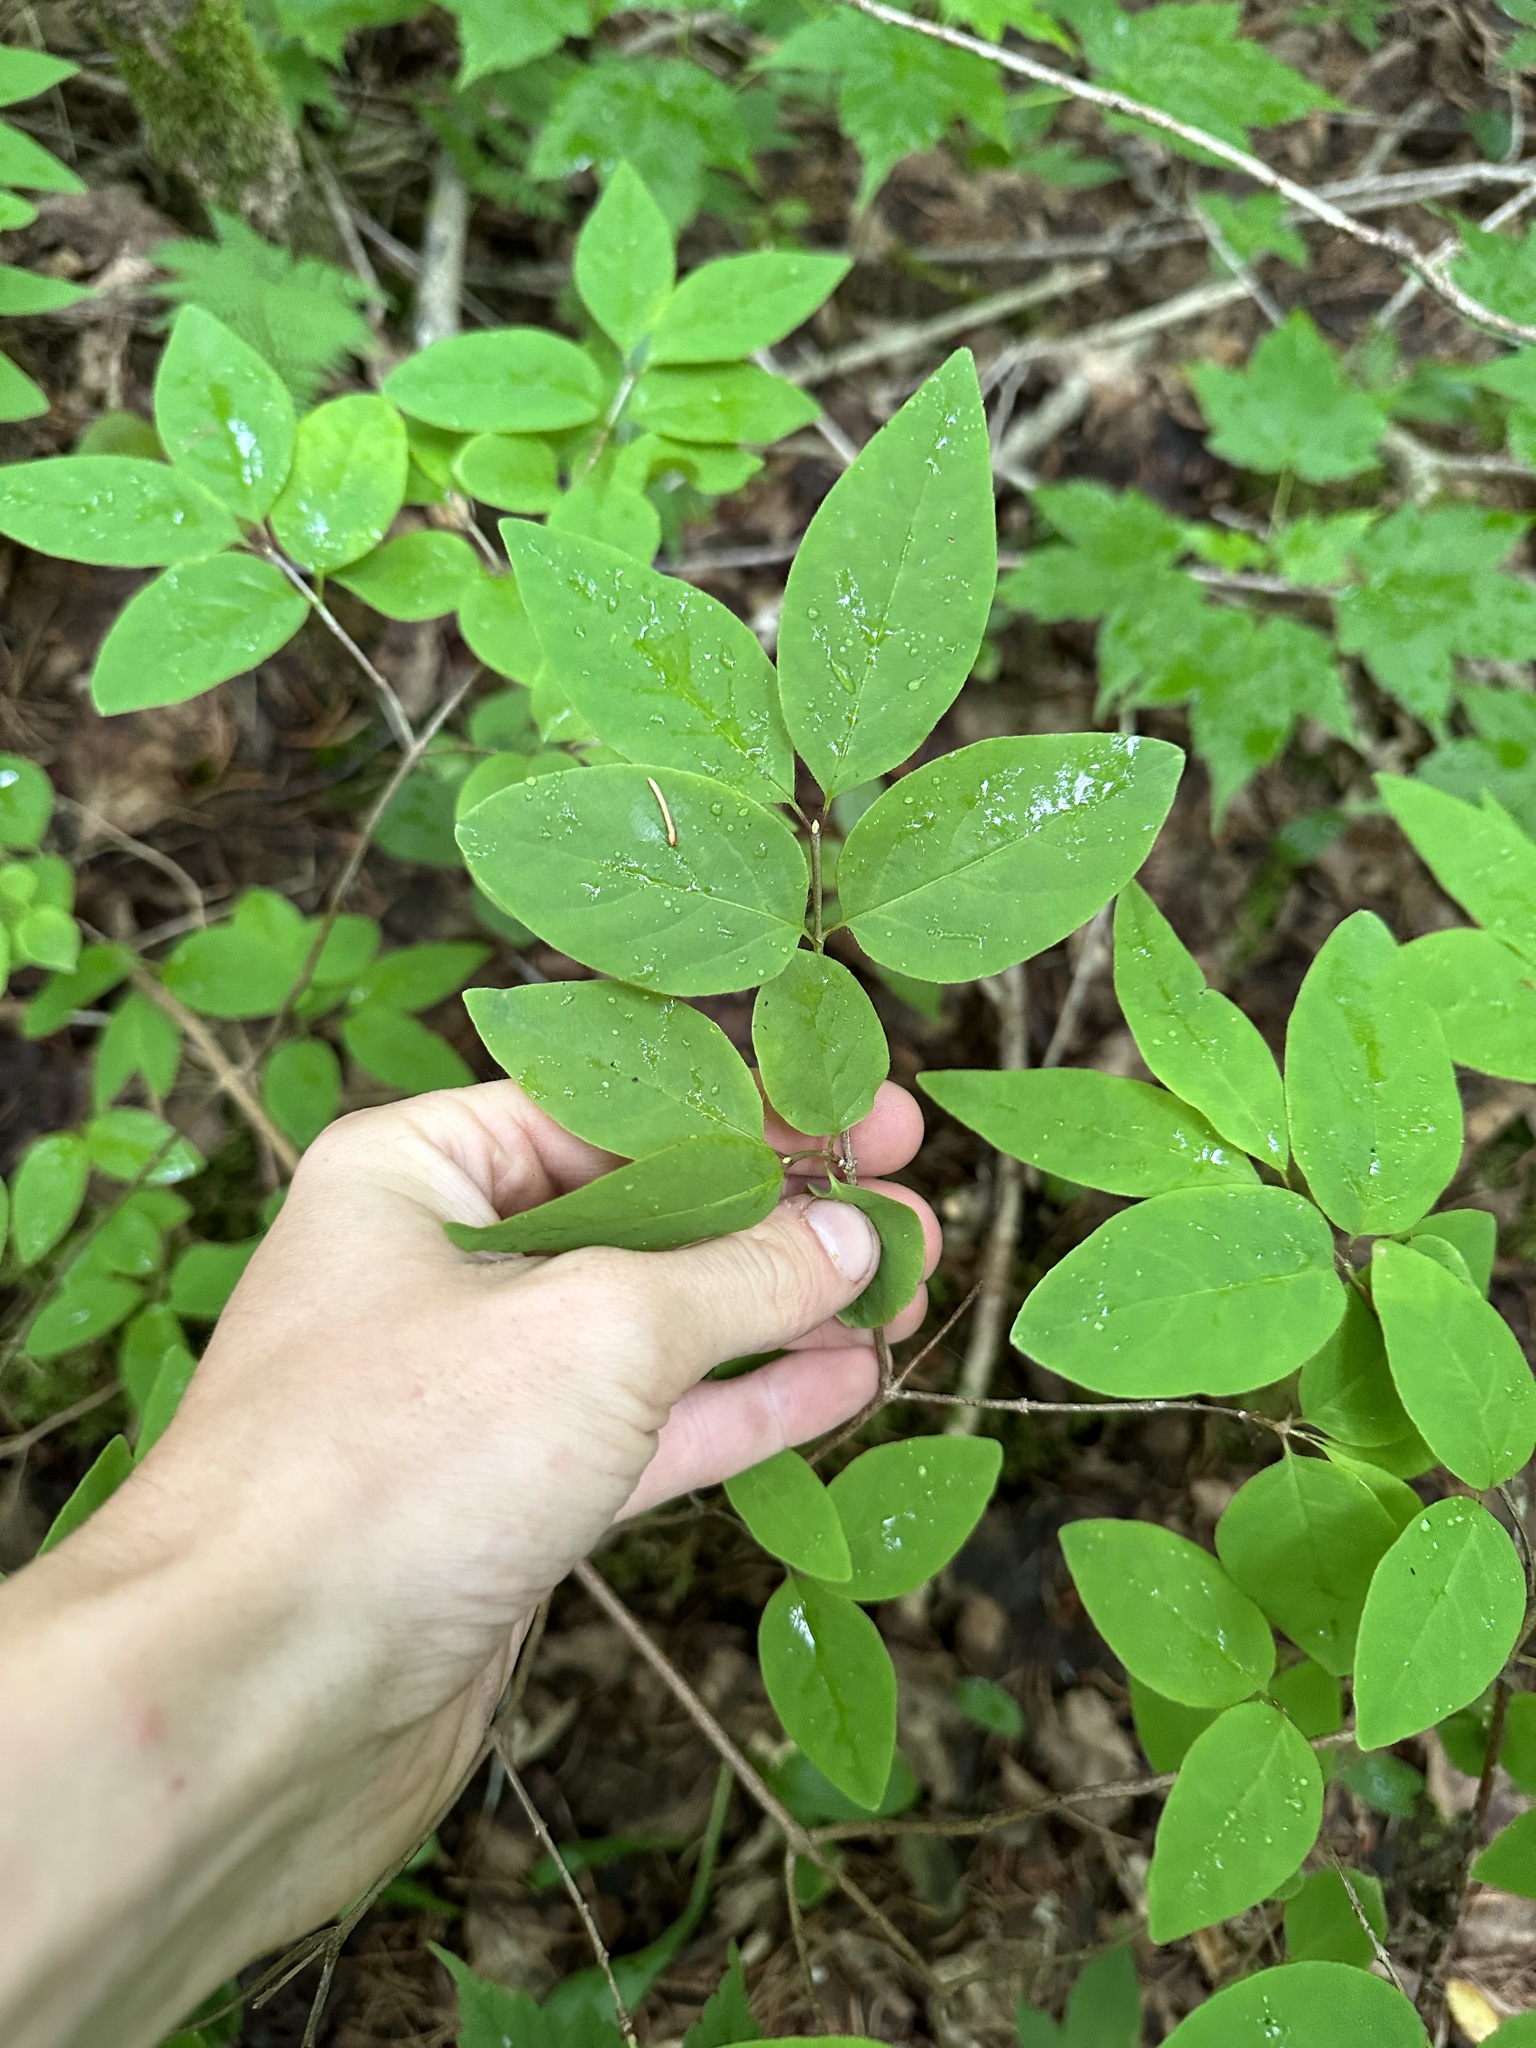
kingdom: Plantae
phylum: Tracheophyta
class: Magnoliopsida
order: Dipsacales
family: Caprifoliaceae
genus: Lonicera
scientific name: Lonicera canadensis
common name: American fly-honeysuckle
